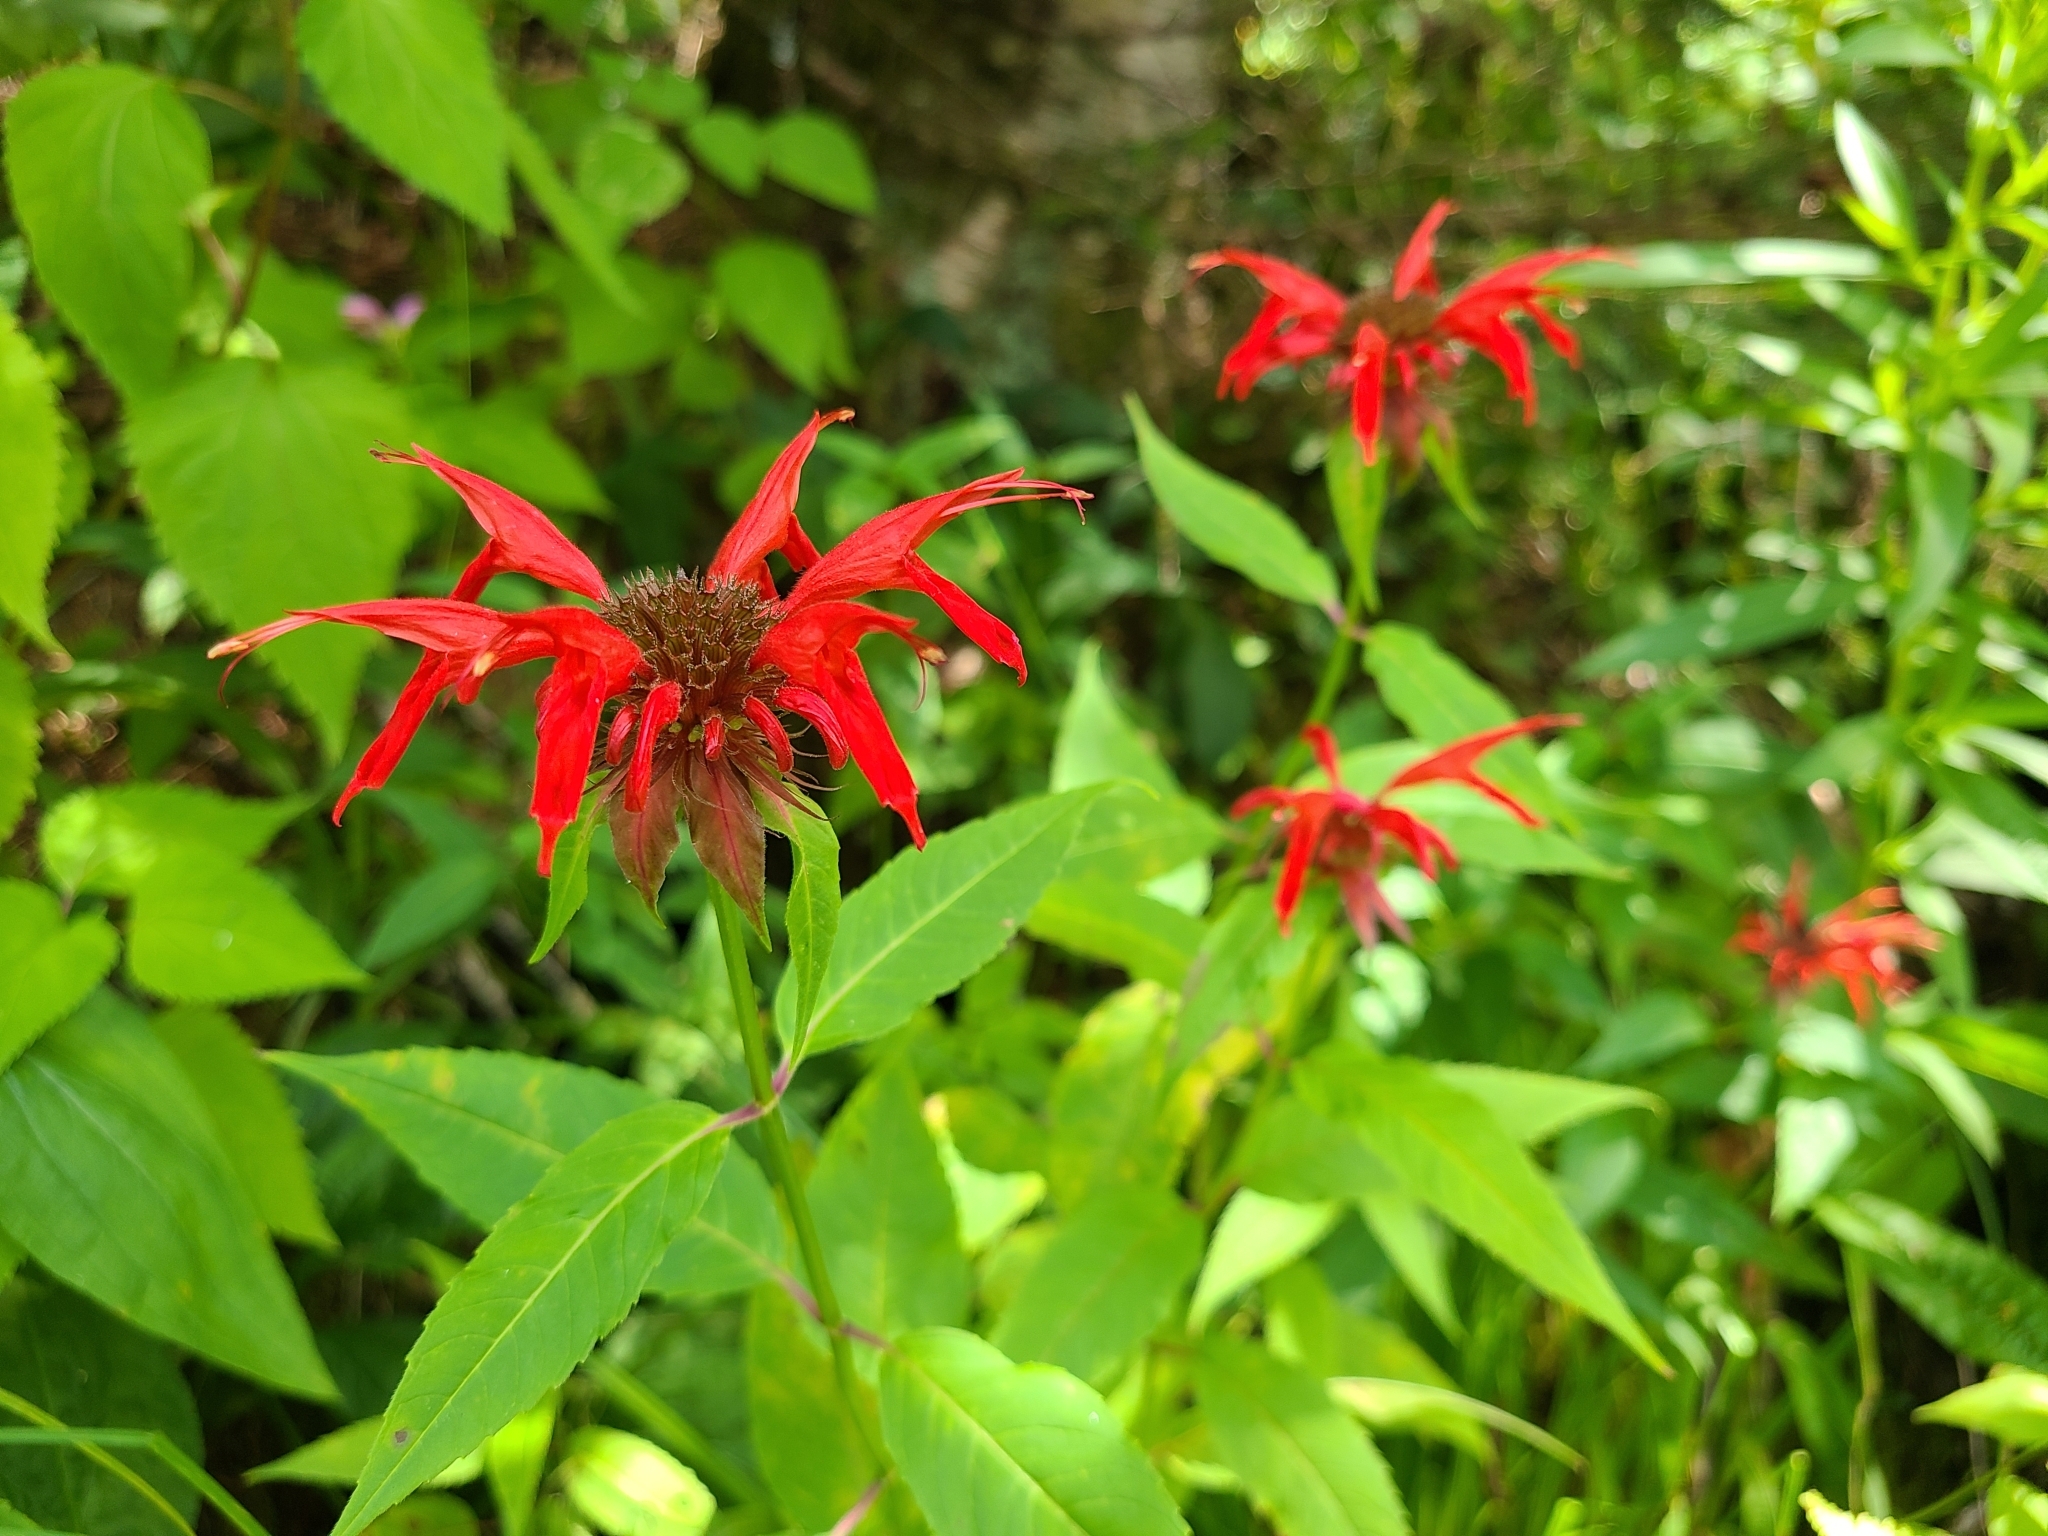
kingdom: Plantae
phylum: Tracheophyta
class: Magnoliopsida
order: Lamiales
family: Lamiaceae
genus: Monarda
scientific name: Monarda didyma
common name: Beebalm
